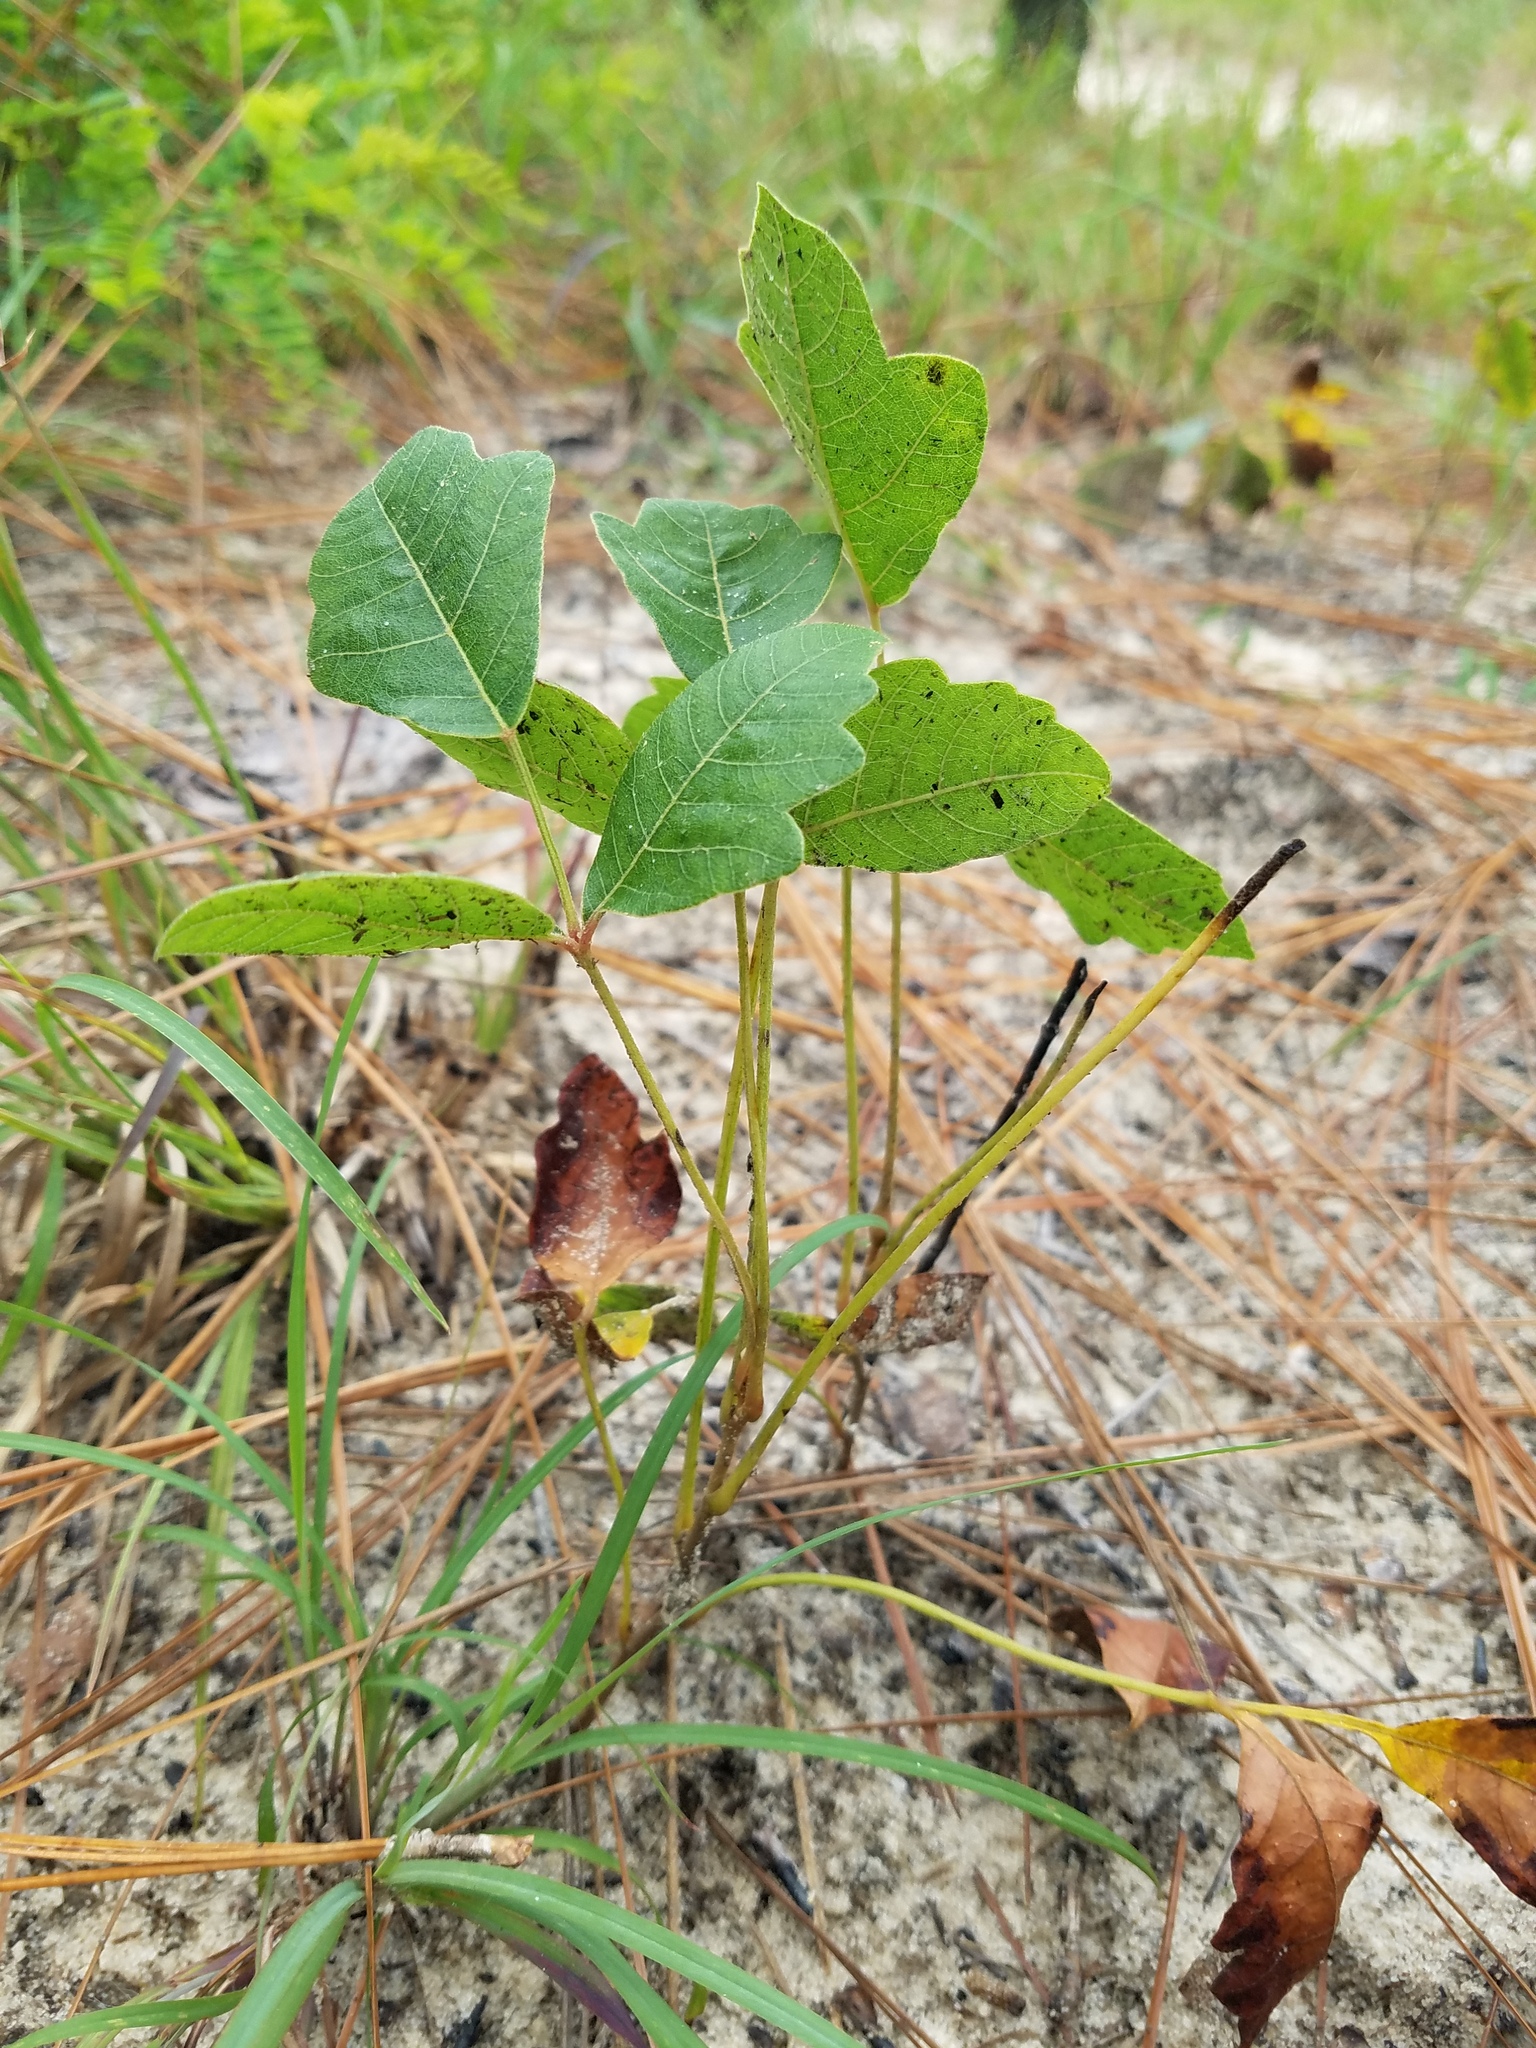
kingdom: Plantae
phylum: Tracheophyta
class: Magnoliopsida
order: Sapindales
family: Anacardiaceae
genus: Toxicodendron
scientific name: Toxicodendron pubescens
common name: Eastern poison-oak
